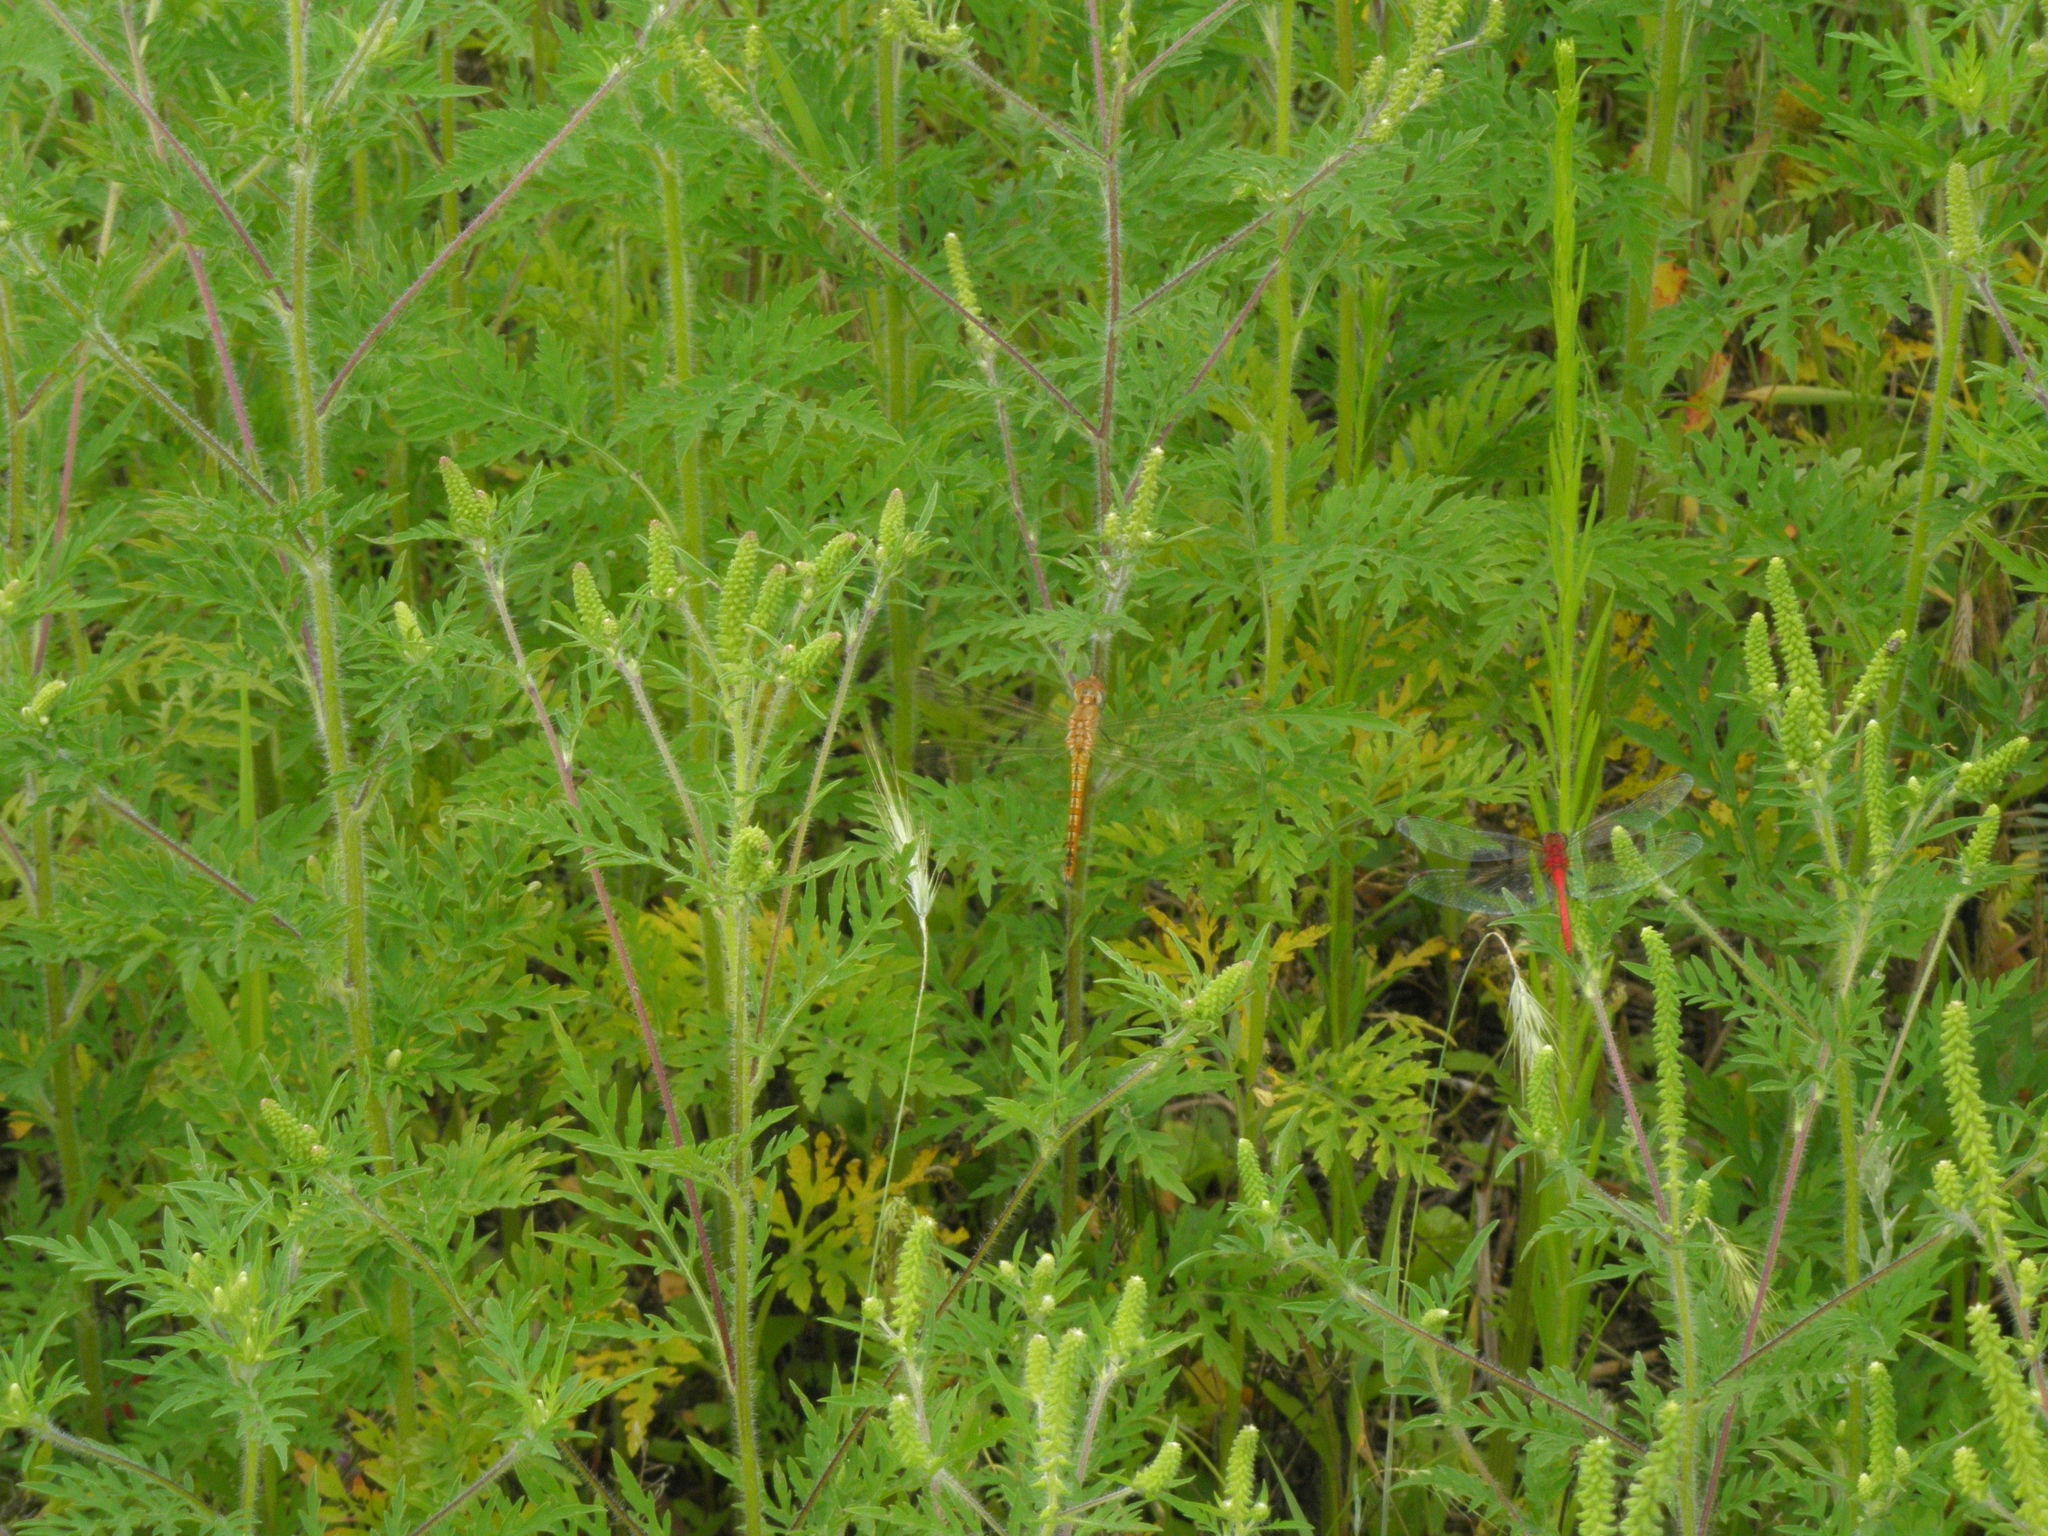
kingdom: Animalia
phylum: Arthropoda
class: Insecta
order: Odonata
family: Libellulidae
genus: Pantala
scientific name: Pantala flavescens
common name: Wandering glider
